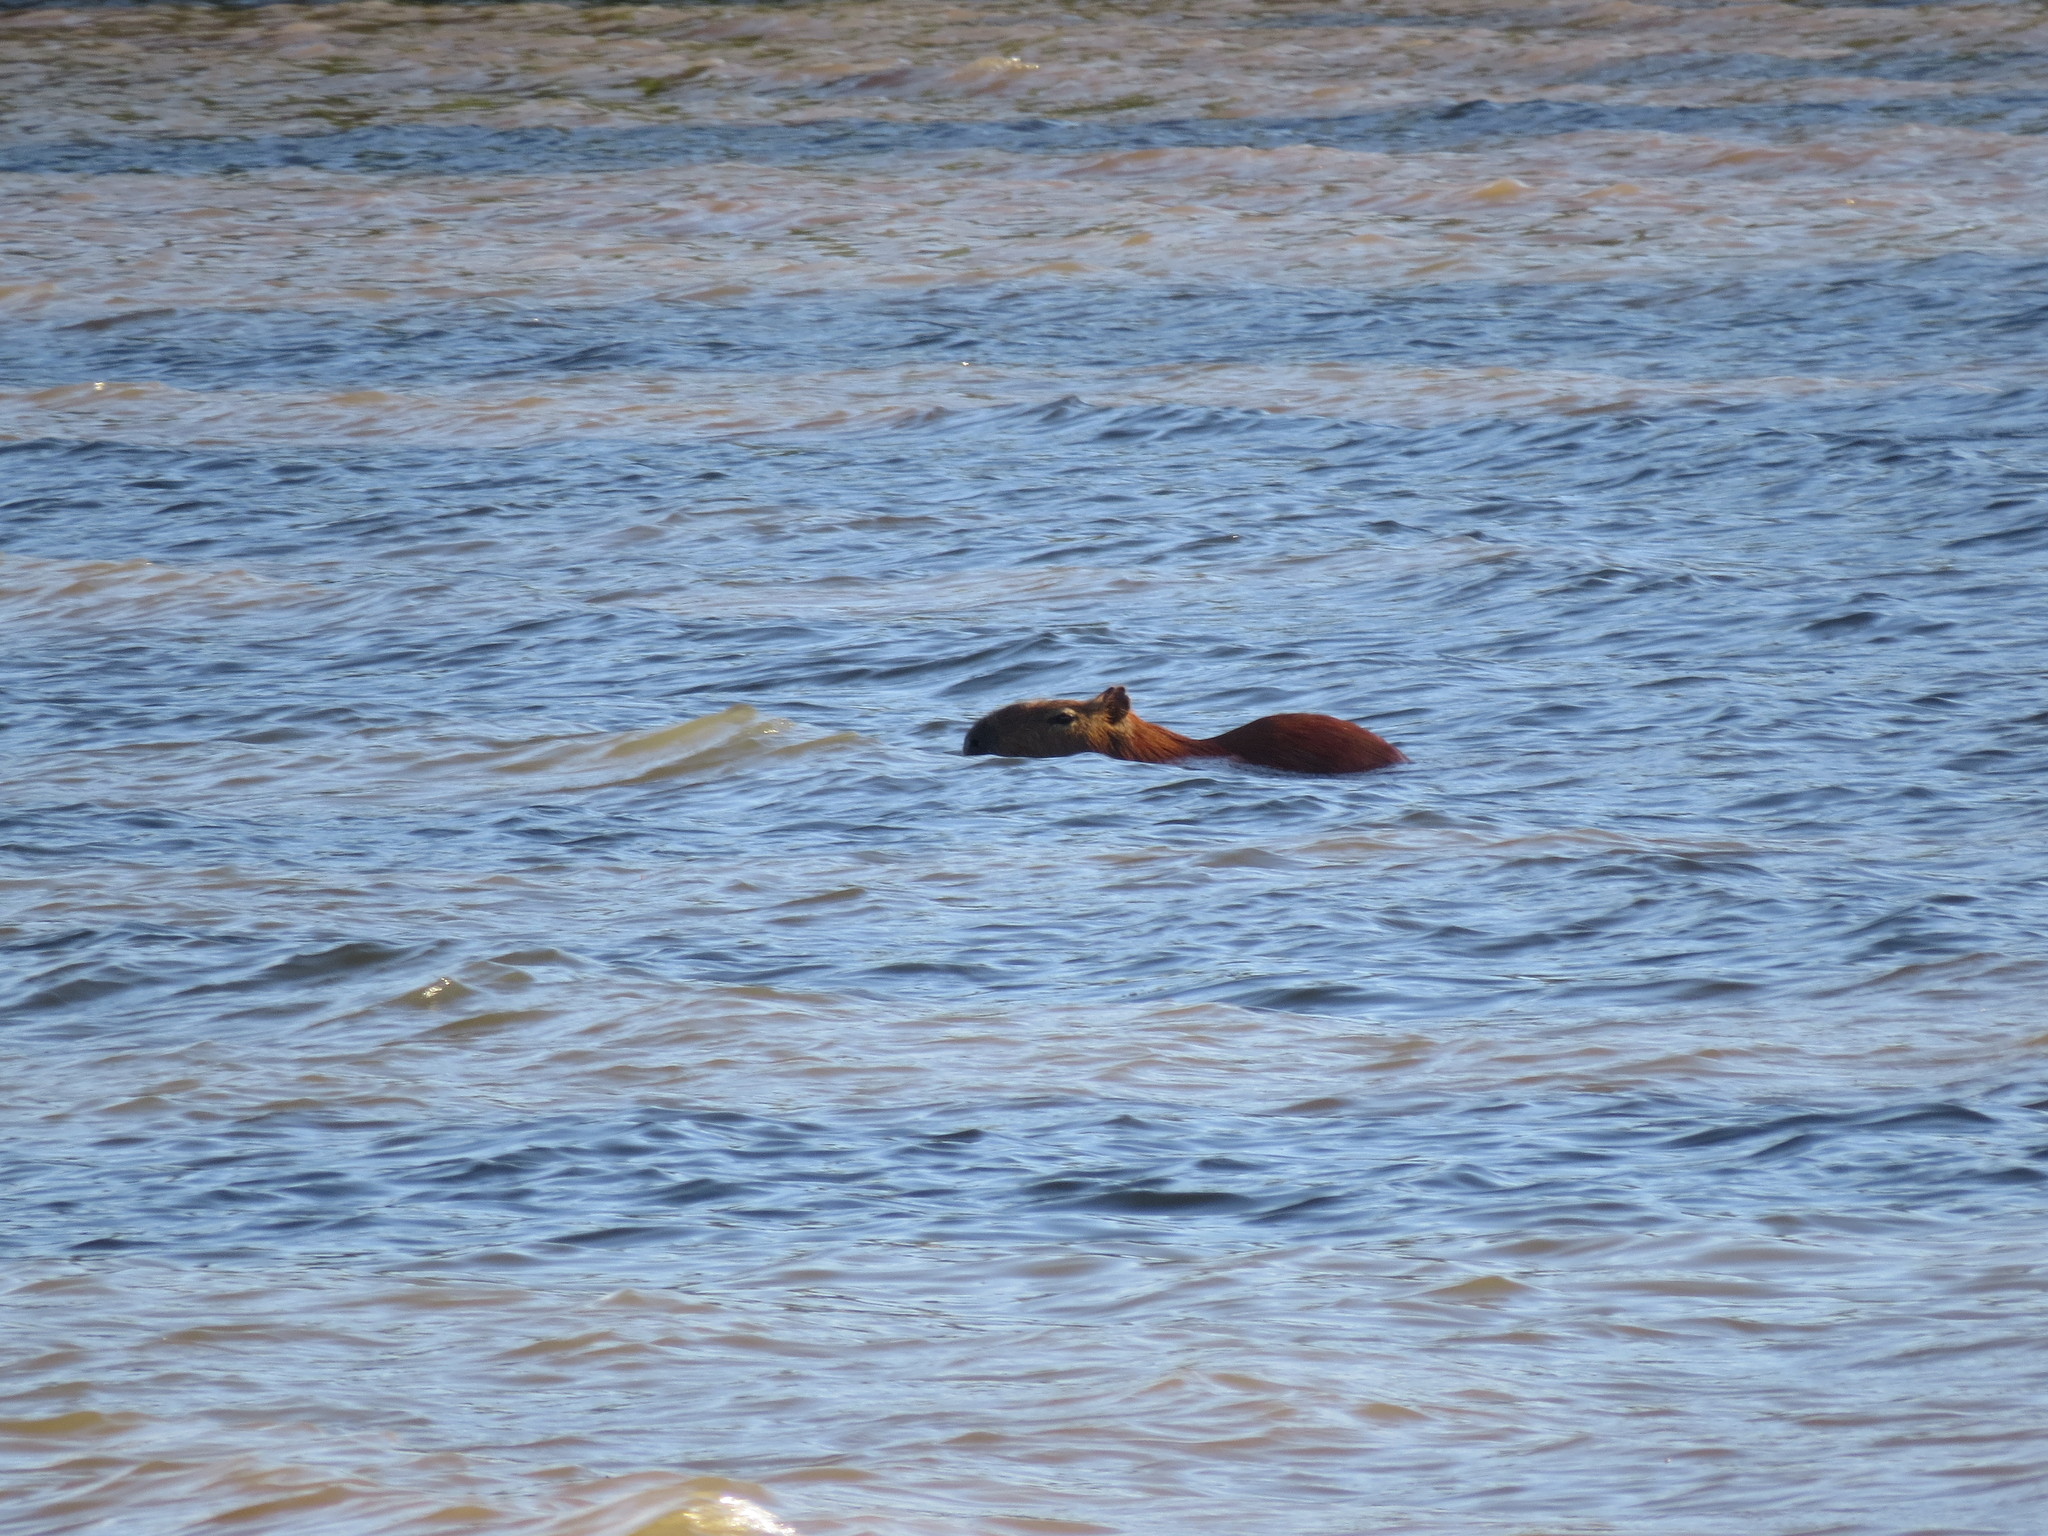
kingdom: Animalia
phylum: Chordata
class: Mammalia
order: Rodentia
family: Caviidae
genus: Hydrochoerus
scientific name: Hydrochoerus hydrochaeris
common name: Capybara
